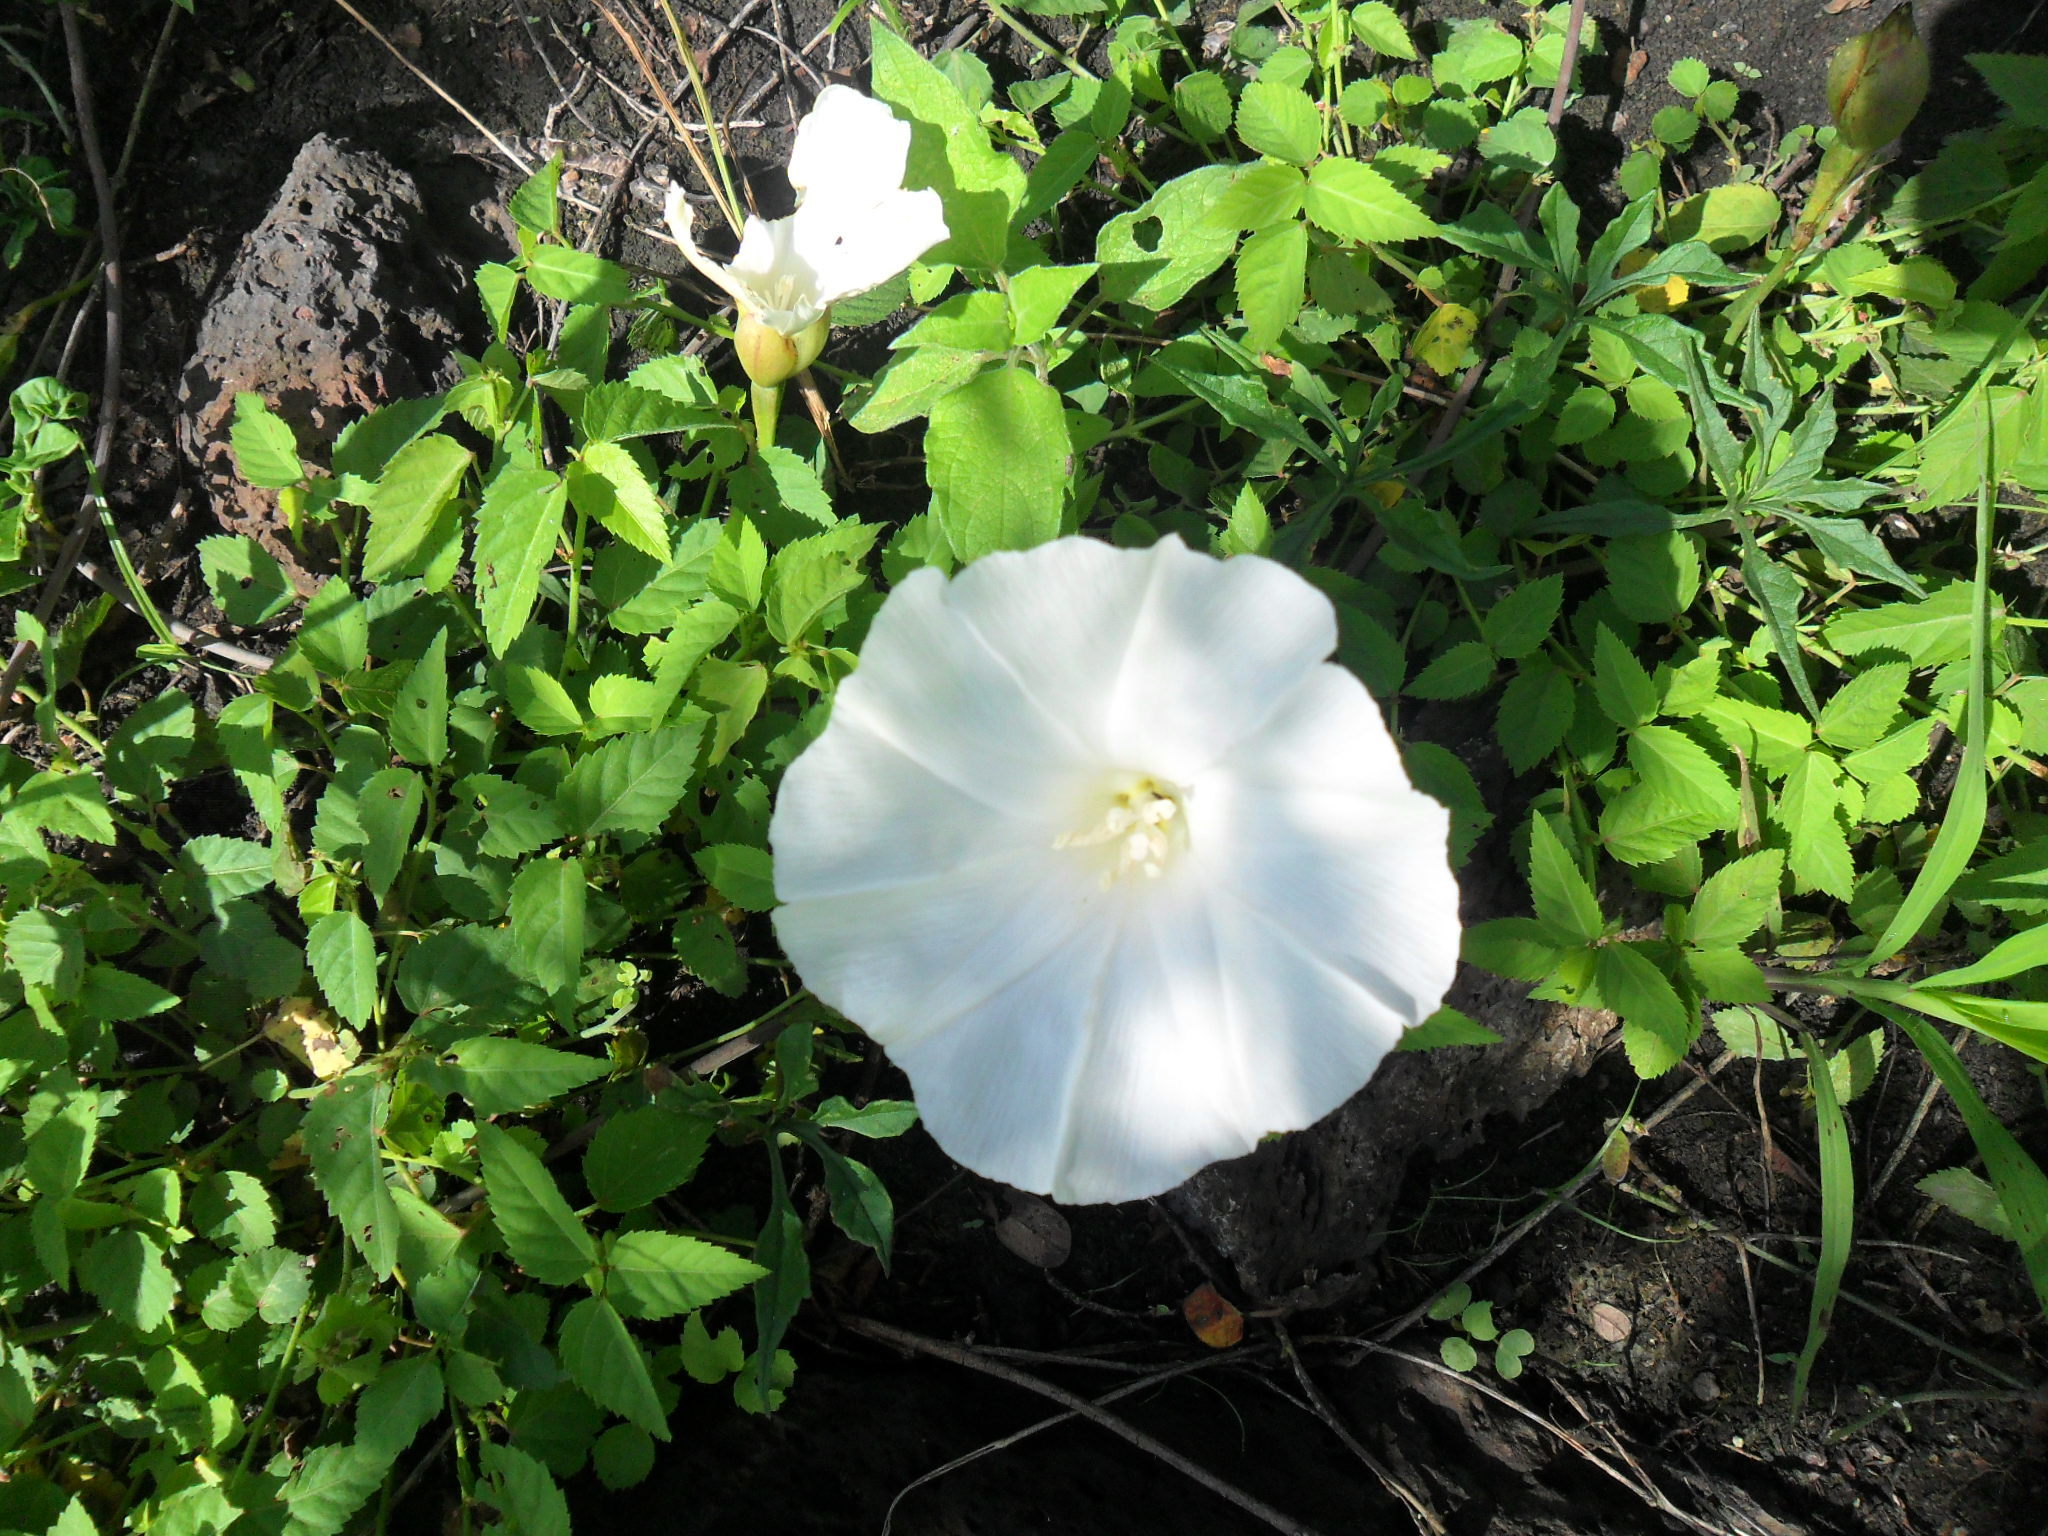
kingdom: Plantae
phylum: Tracheophyta
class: Magnoliopsida
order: Solanales
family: Convolvulaceae
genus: Operculina
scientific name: Operculina pinnatifida
